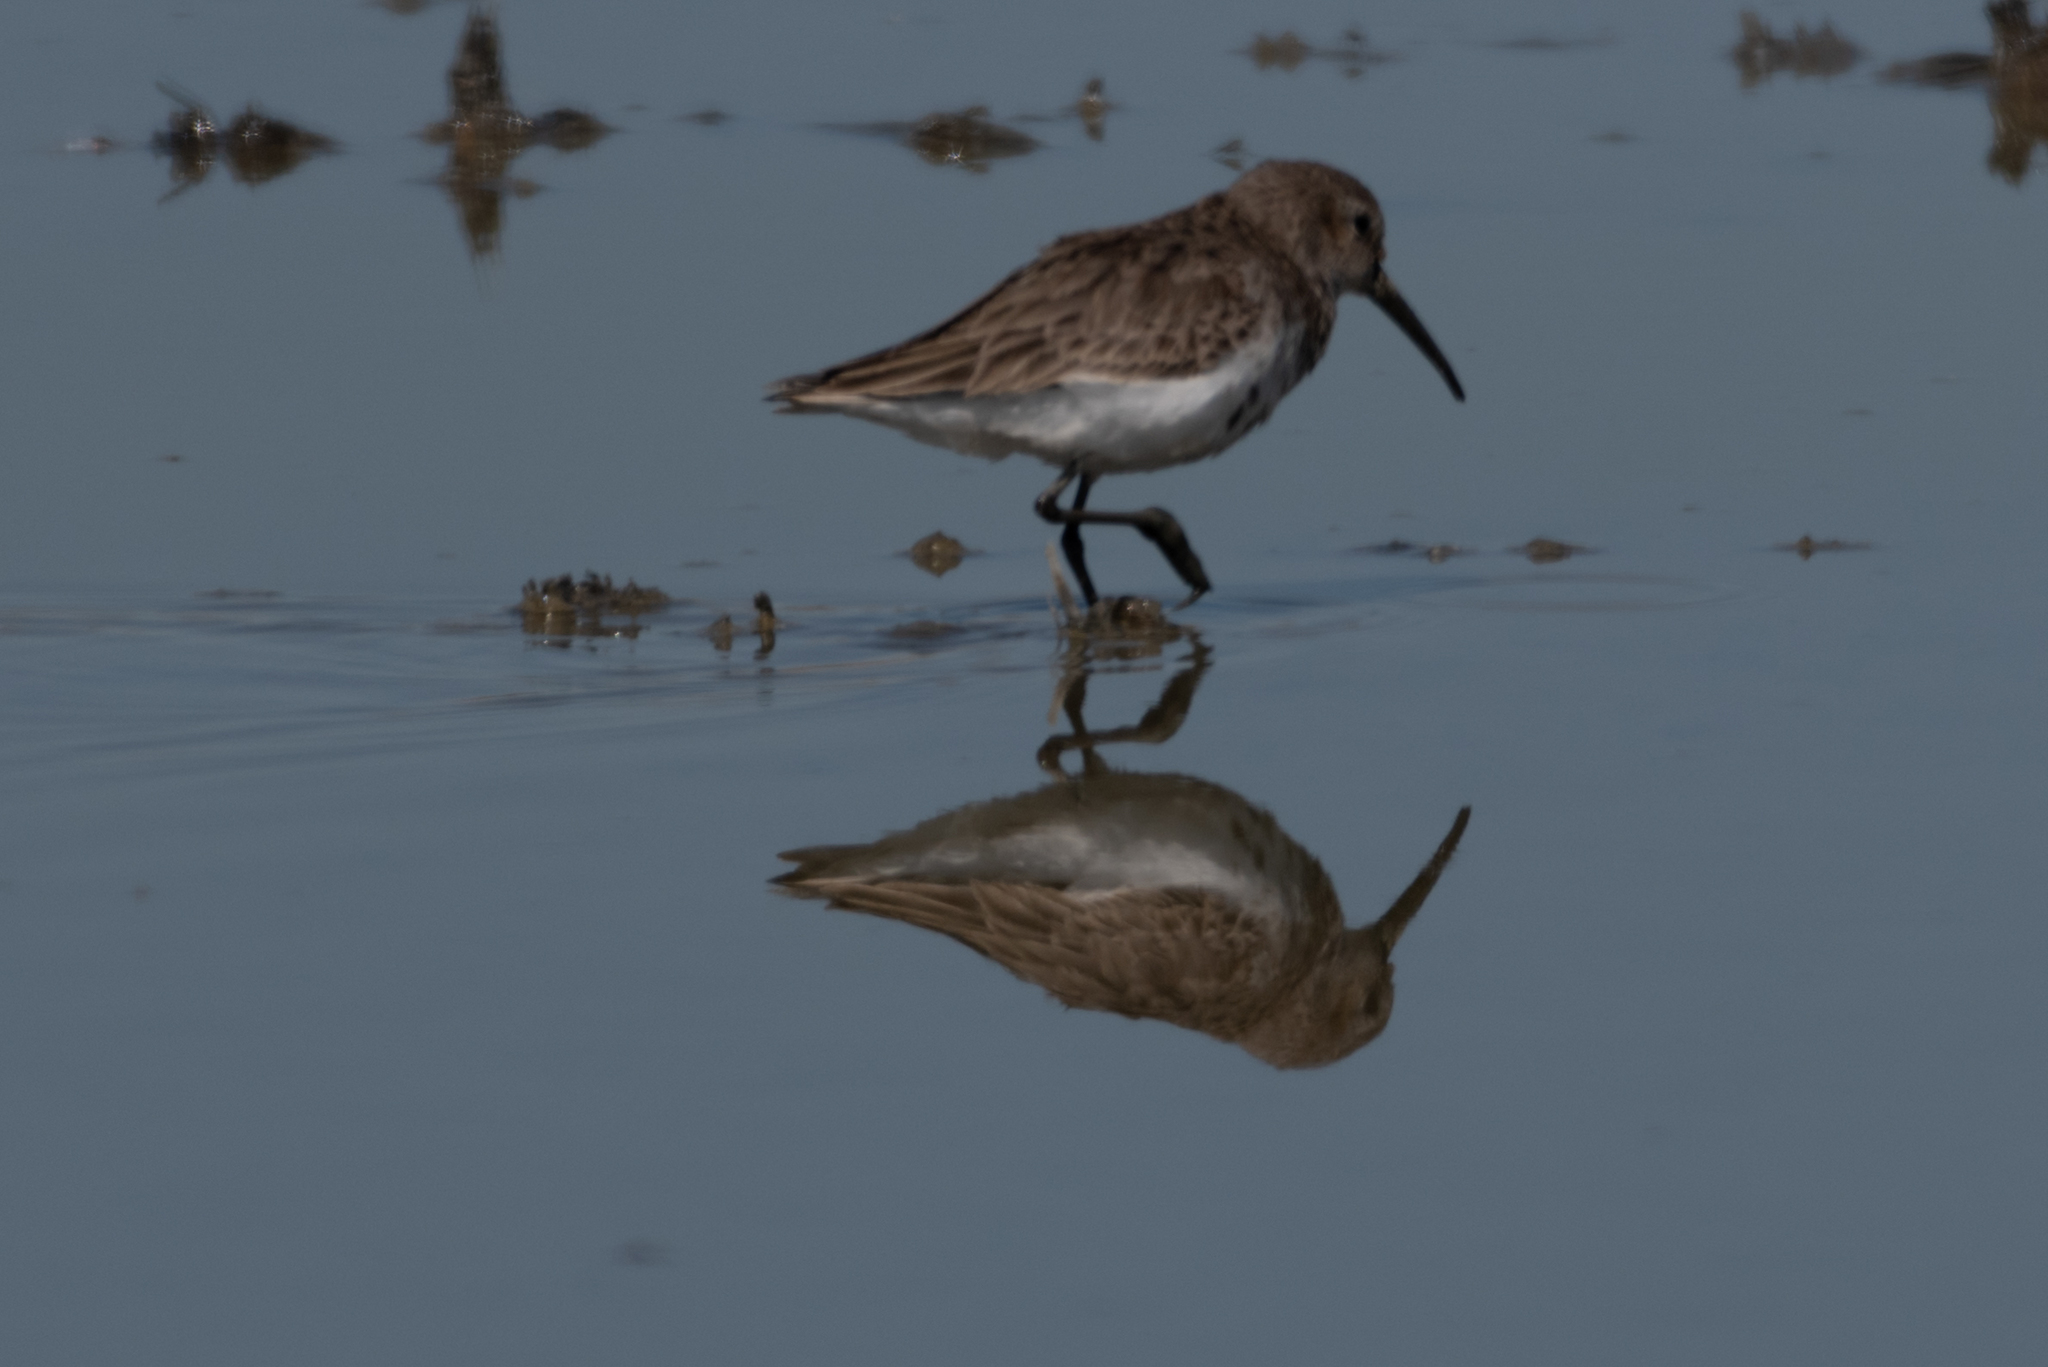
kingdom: Animalia
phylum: Chordata
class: Aves
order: Charadriiformes
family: Scolopacidae
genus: Calidris
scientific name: Calidris alpina
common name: Dunlin
